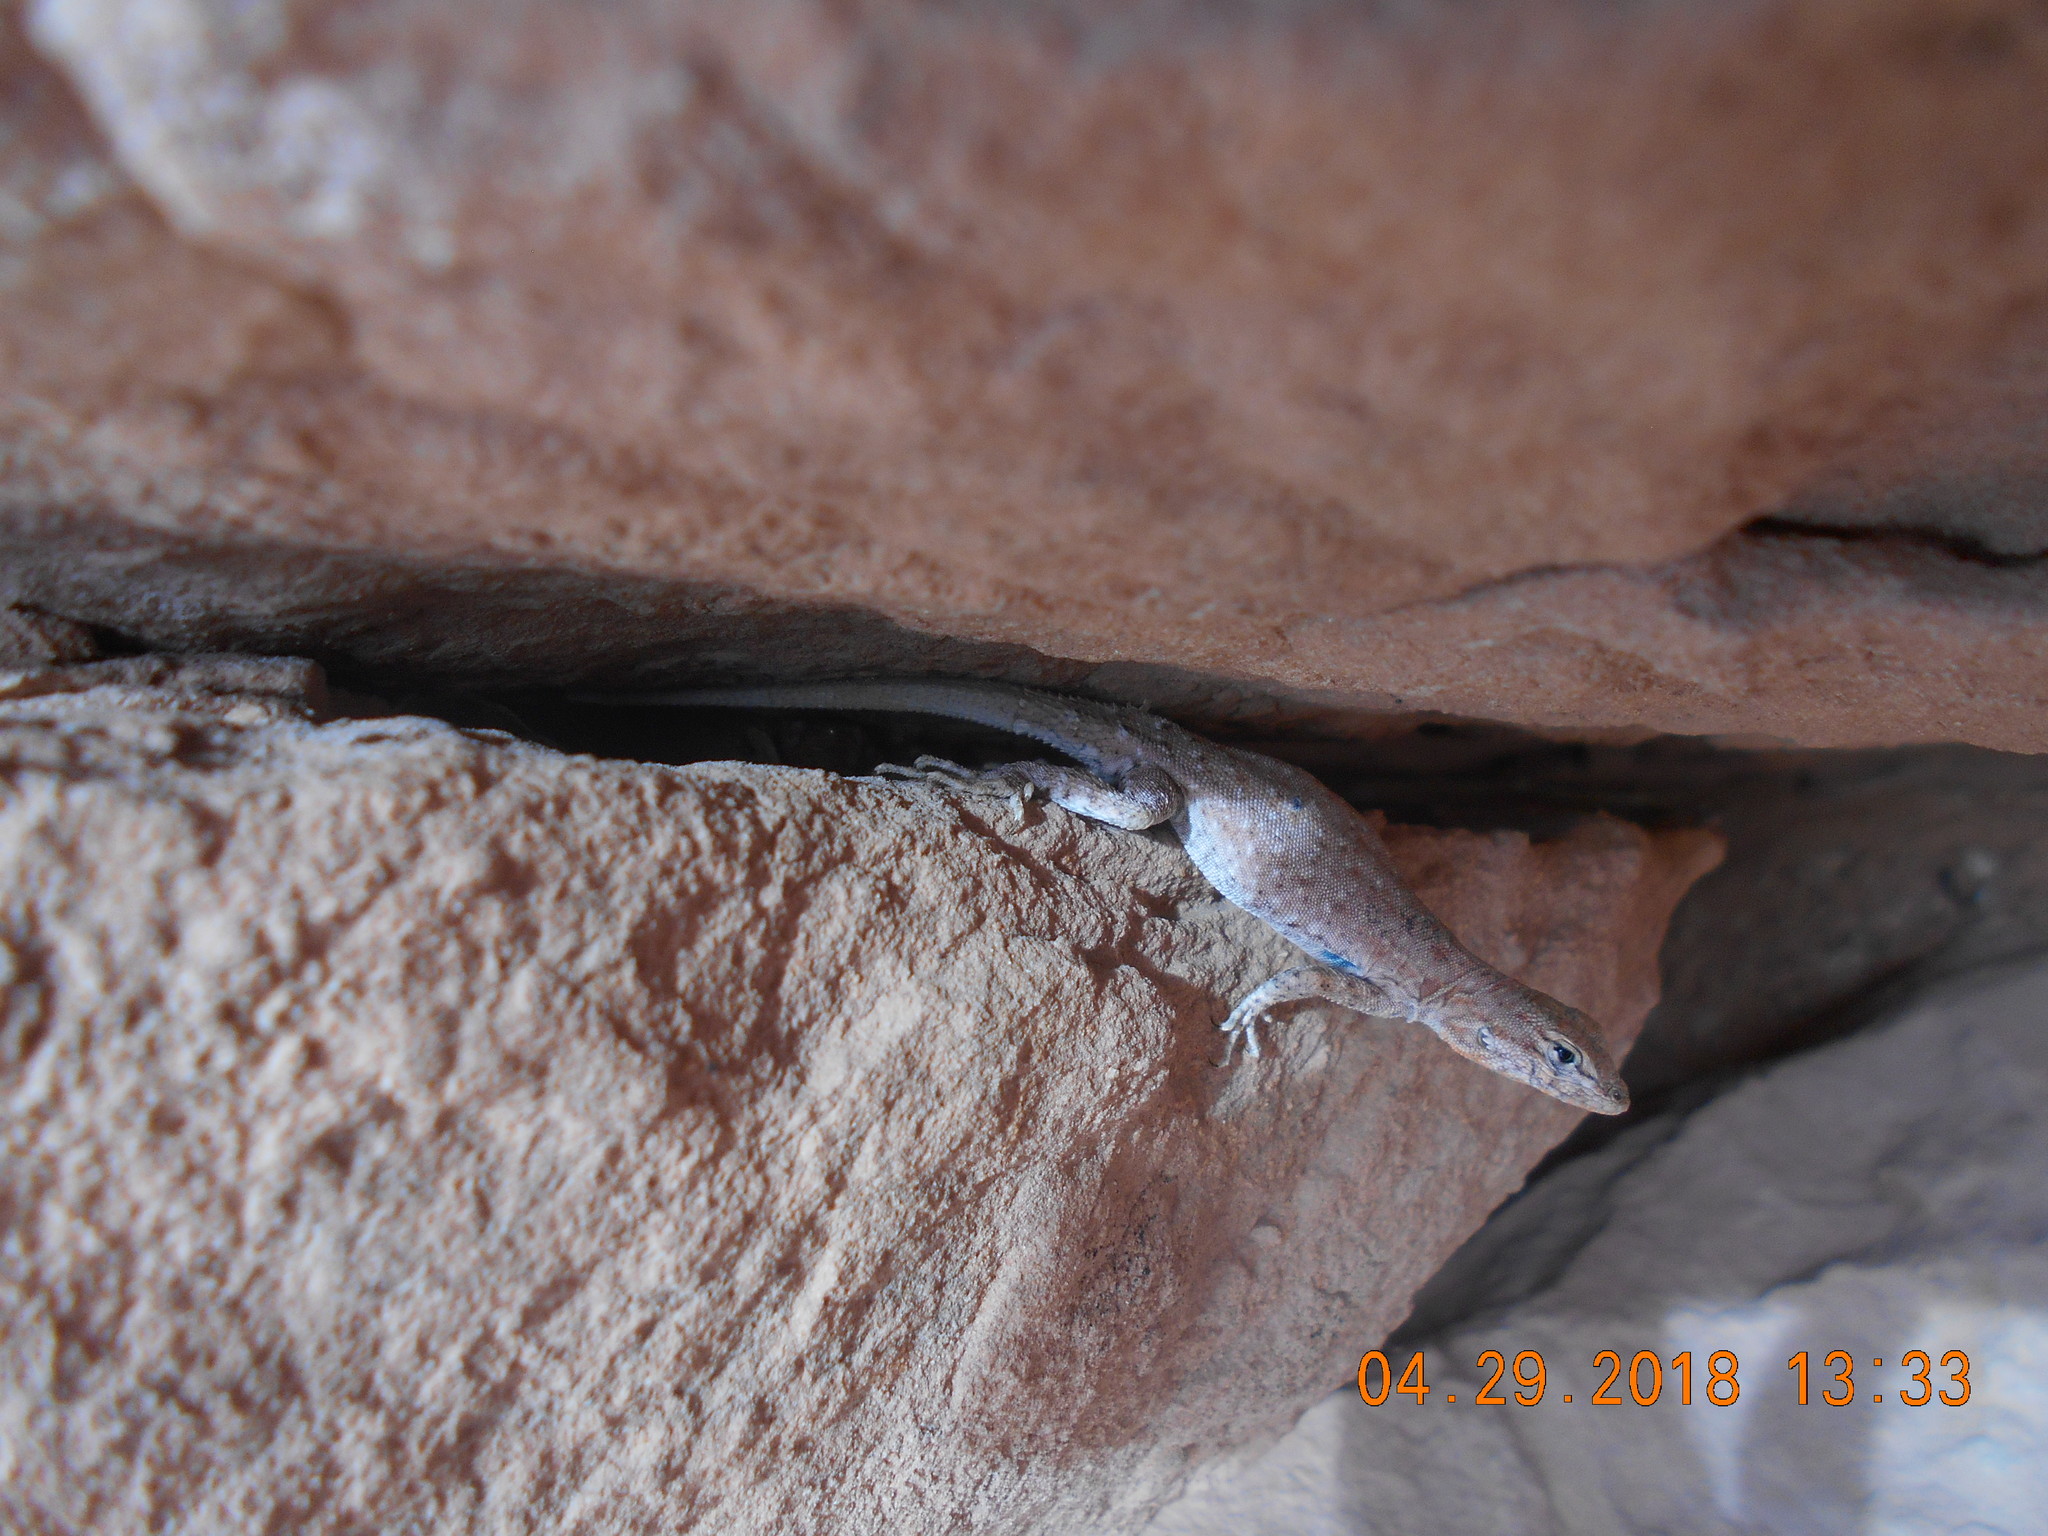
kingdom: Animalia
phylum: Chordata
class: Squamata
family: Phrynosomatidae
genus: Uta
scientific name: Uta stansburiana
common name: Side-blotched lizard
